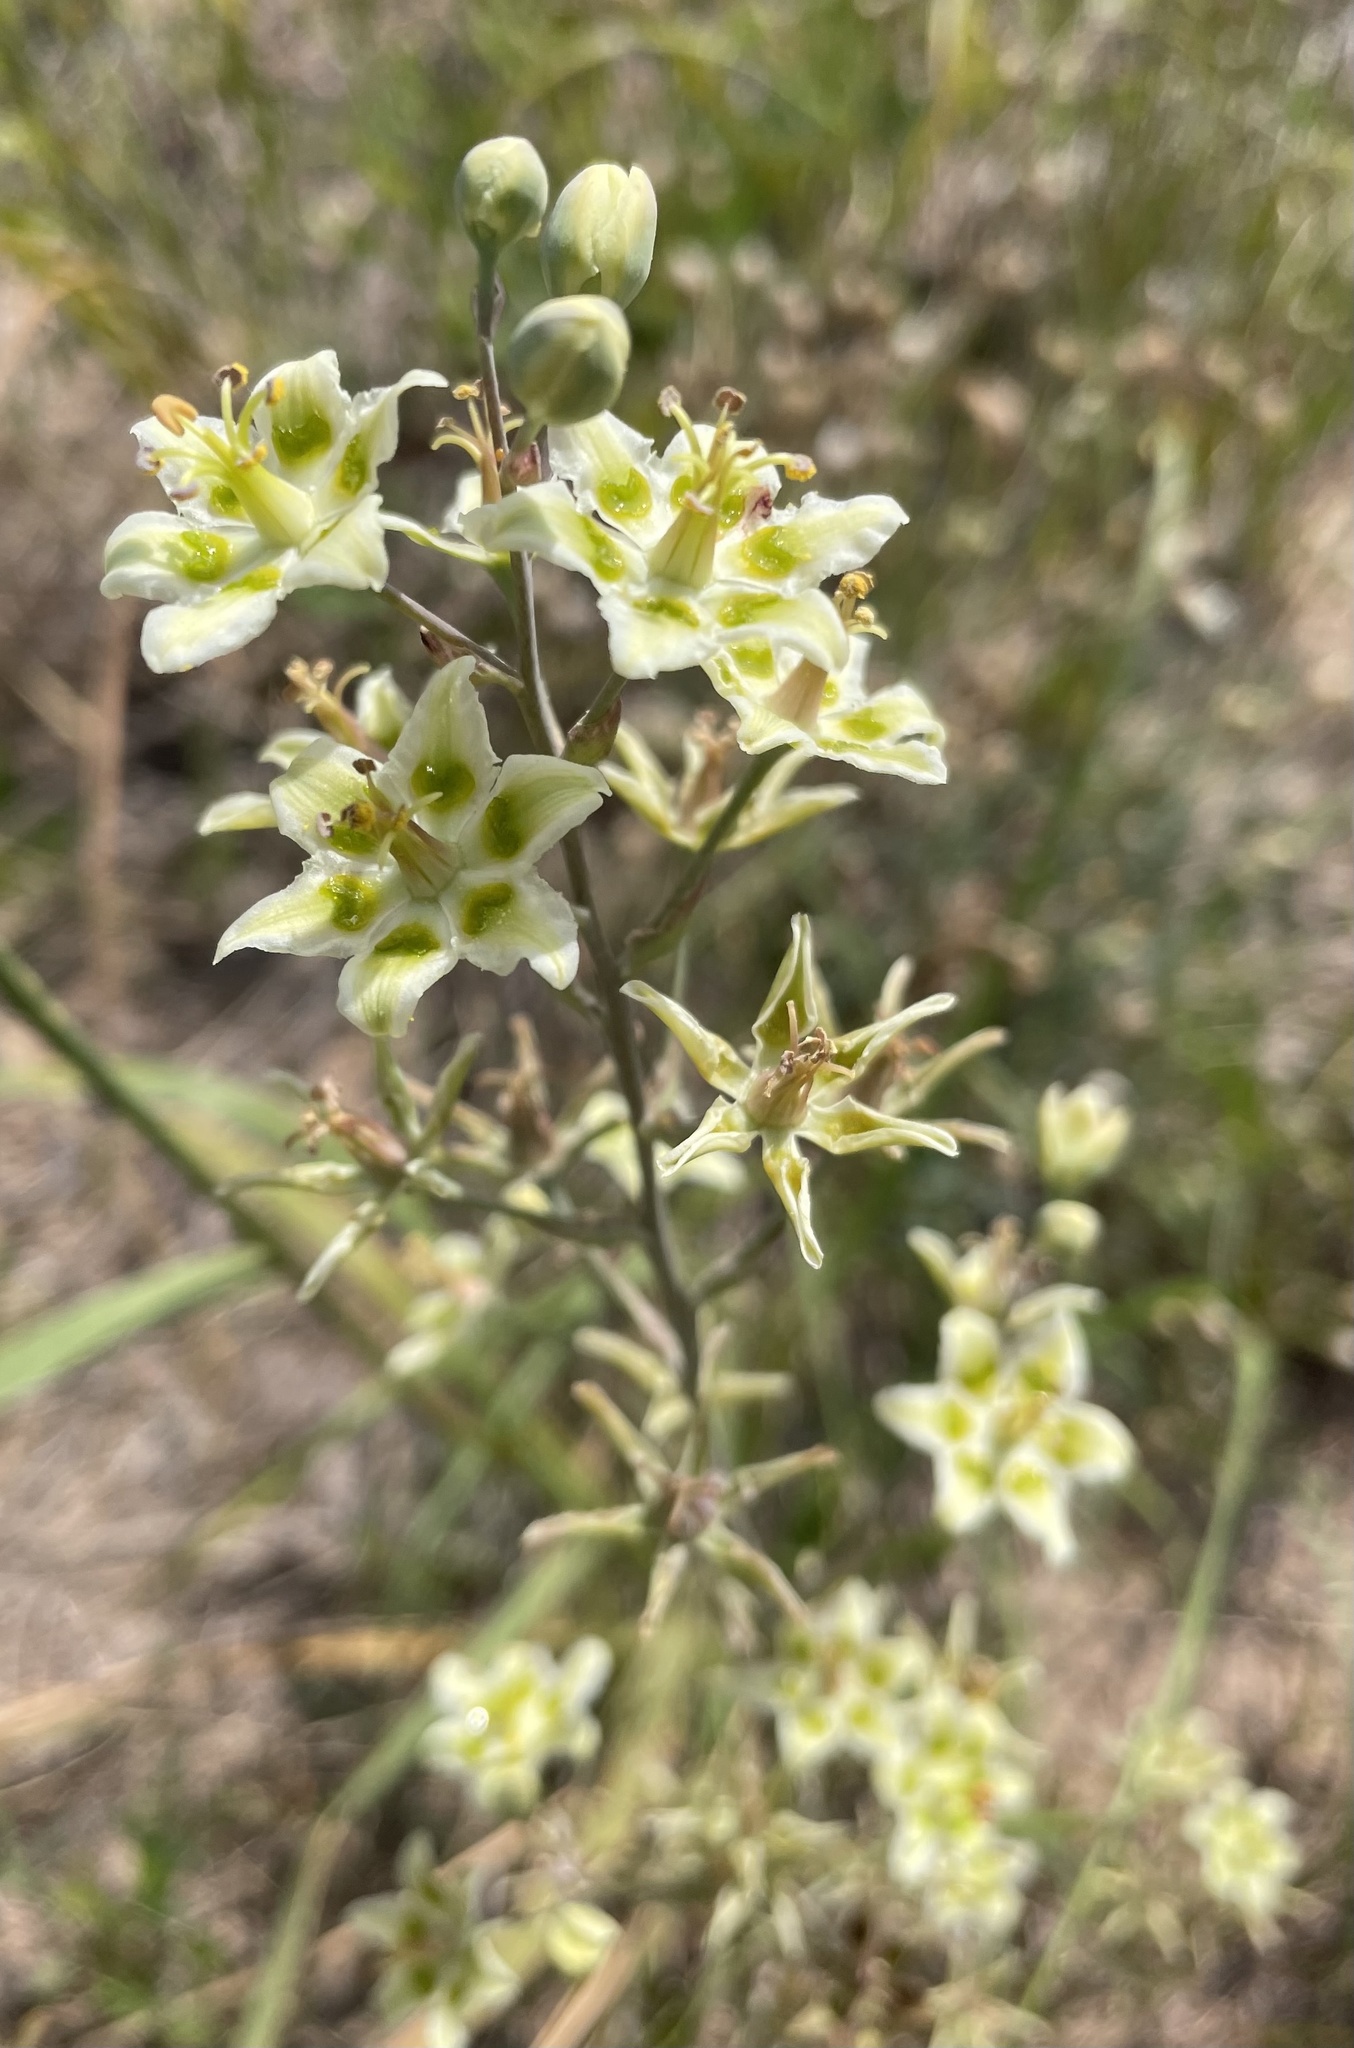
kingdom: Plantae
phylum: Tracheophyta
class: Liliopsida
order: Liliales
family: Melanthiaceae
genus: Anticlea
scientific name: Anticlea elegans
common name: Mountain death camas
